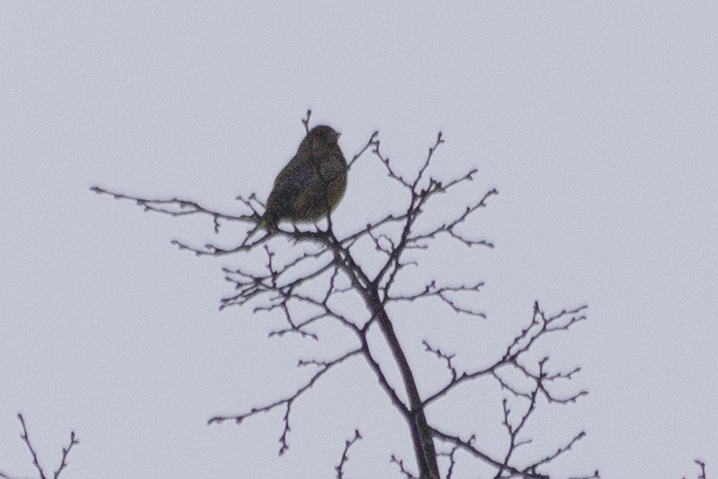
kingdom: Plantae
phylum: Tracheophyta
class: Liliopsida
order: Poales
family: Poaceae
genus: Chloris
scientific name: Chloris chloris
